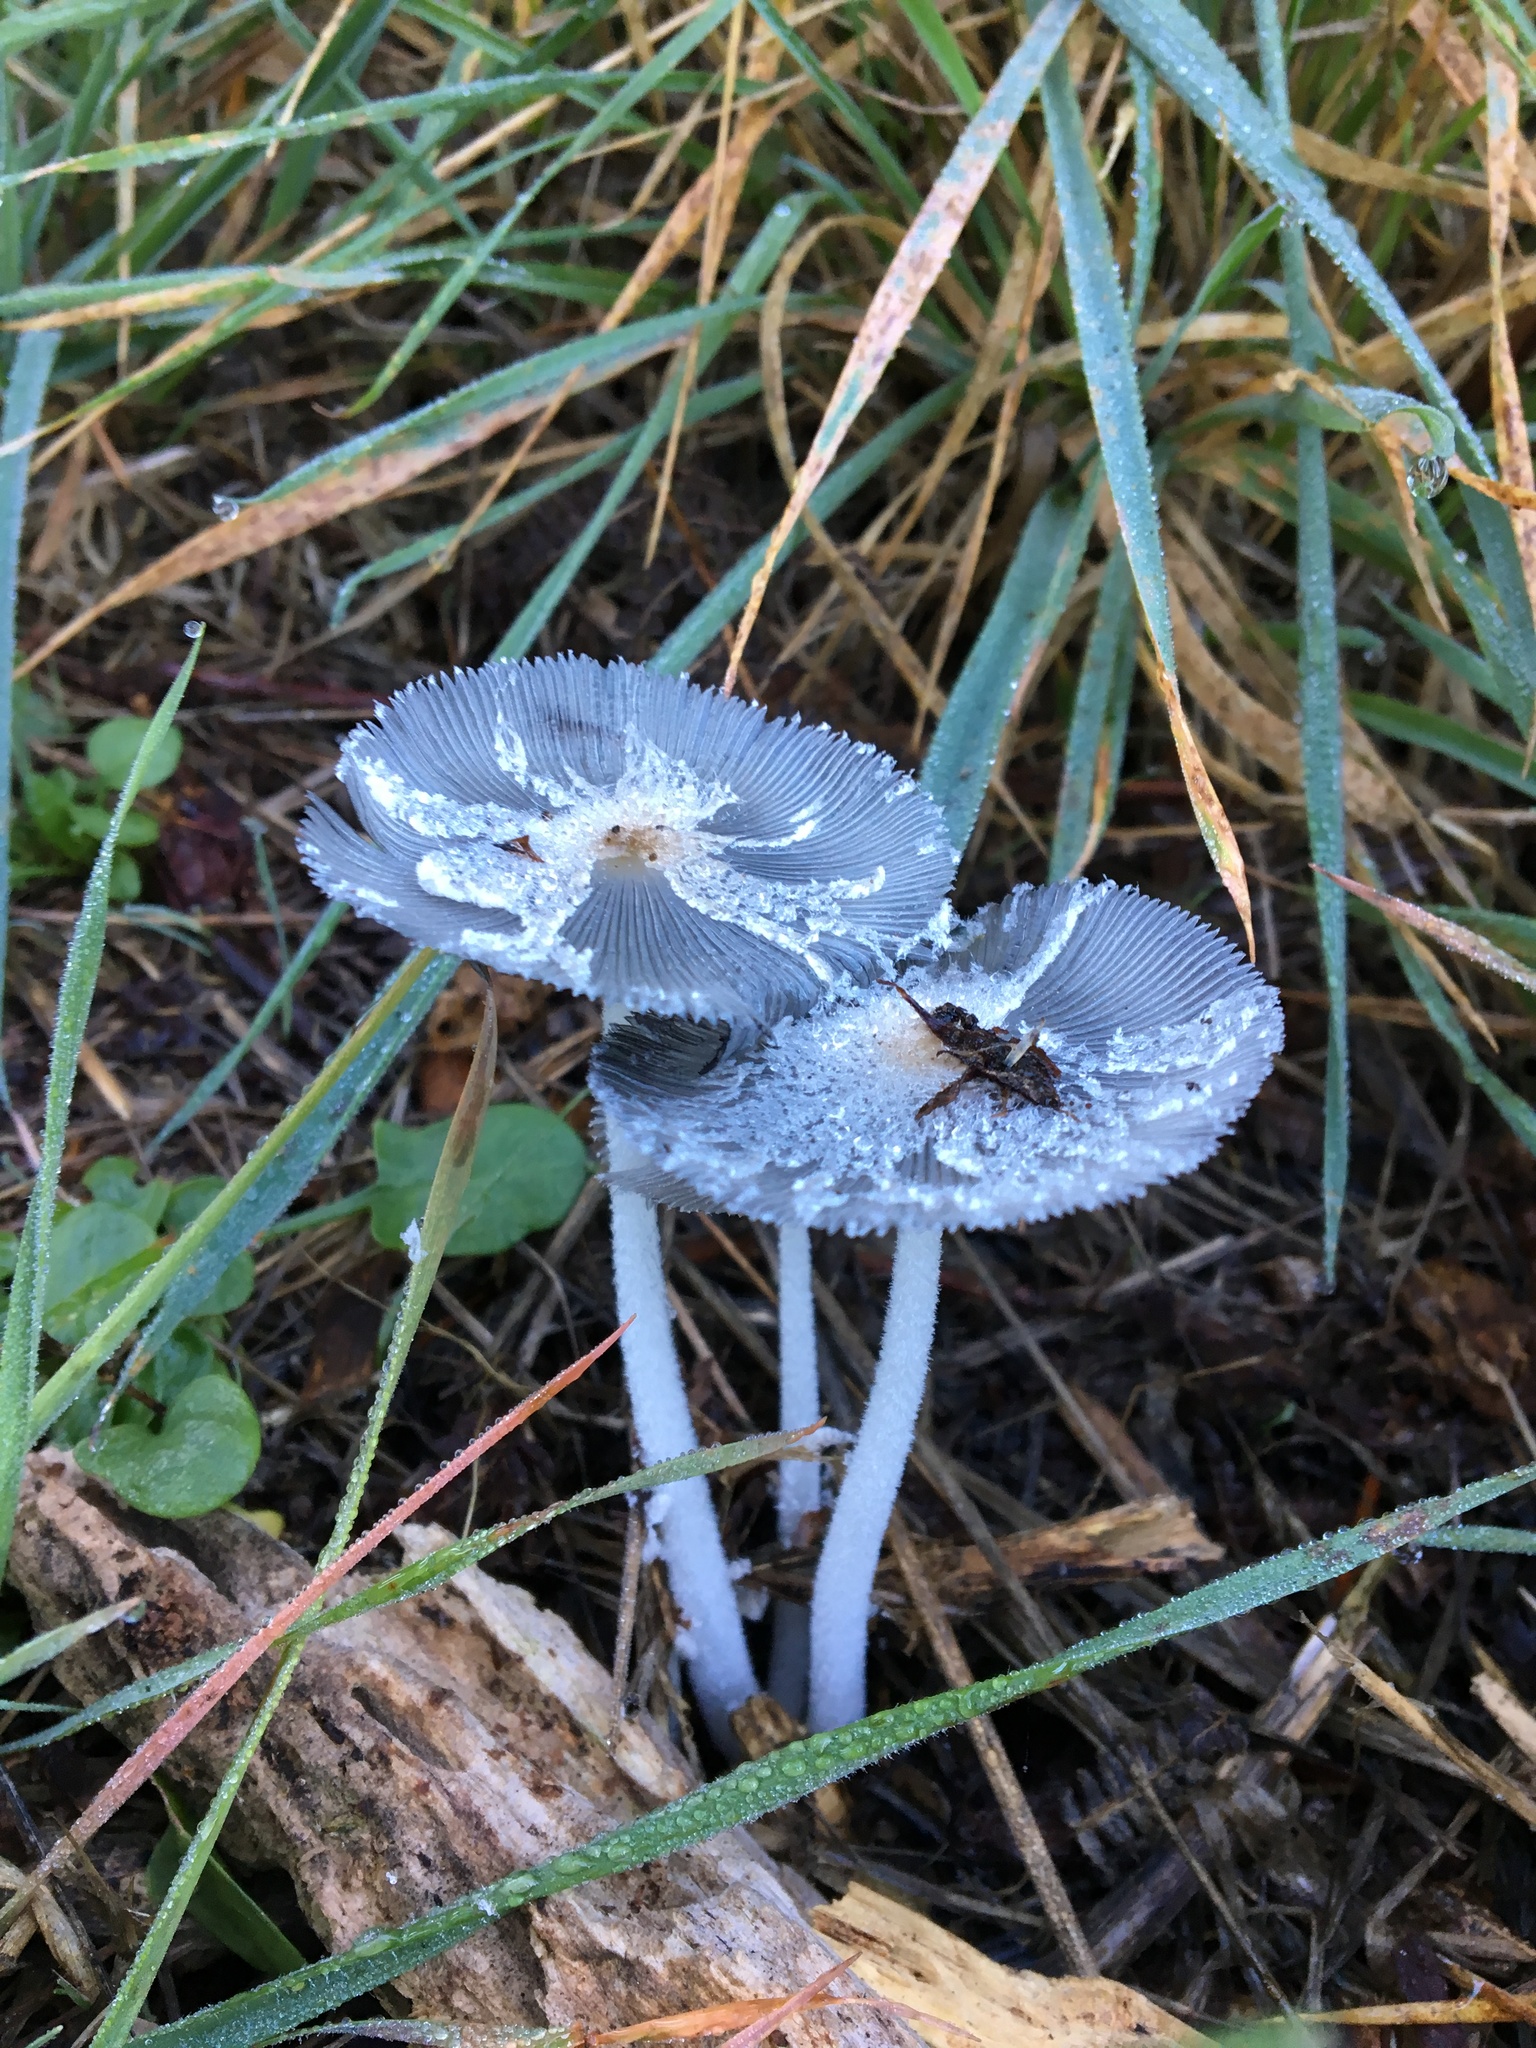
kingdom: Fungi
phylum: Basidiomycota
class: Agaricomycetes
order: Agaricales
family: Psathyrellaceae
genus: Coprinopsis
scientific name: Coprinopsis lagopus
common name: Hare'sfoot inkcap
